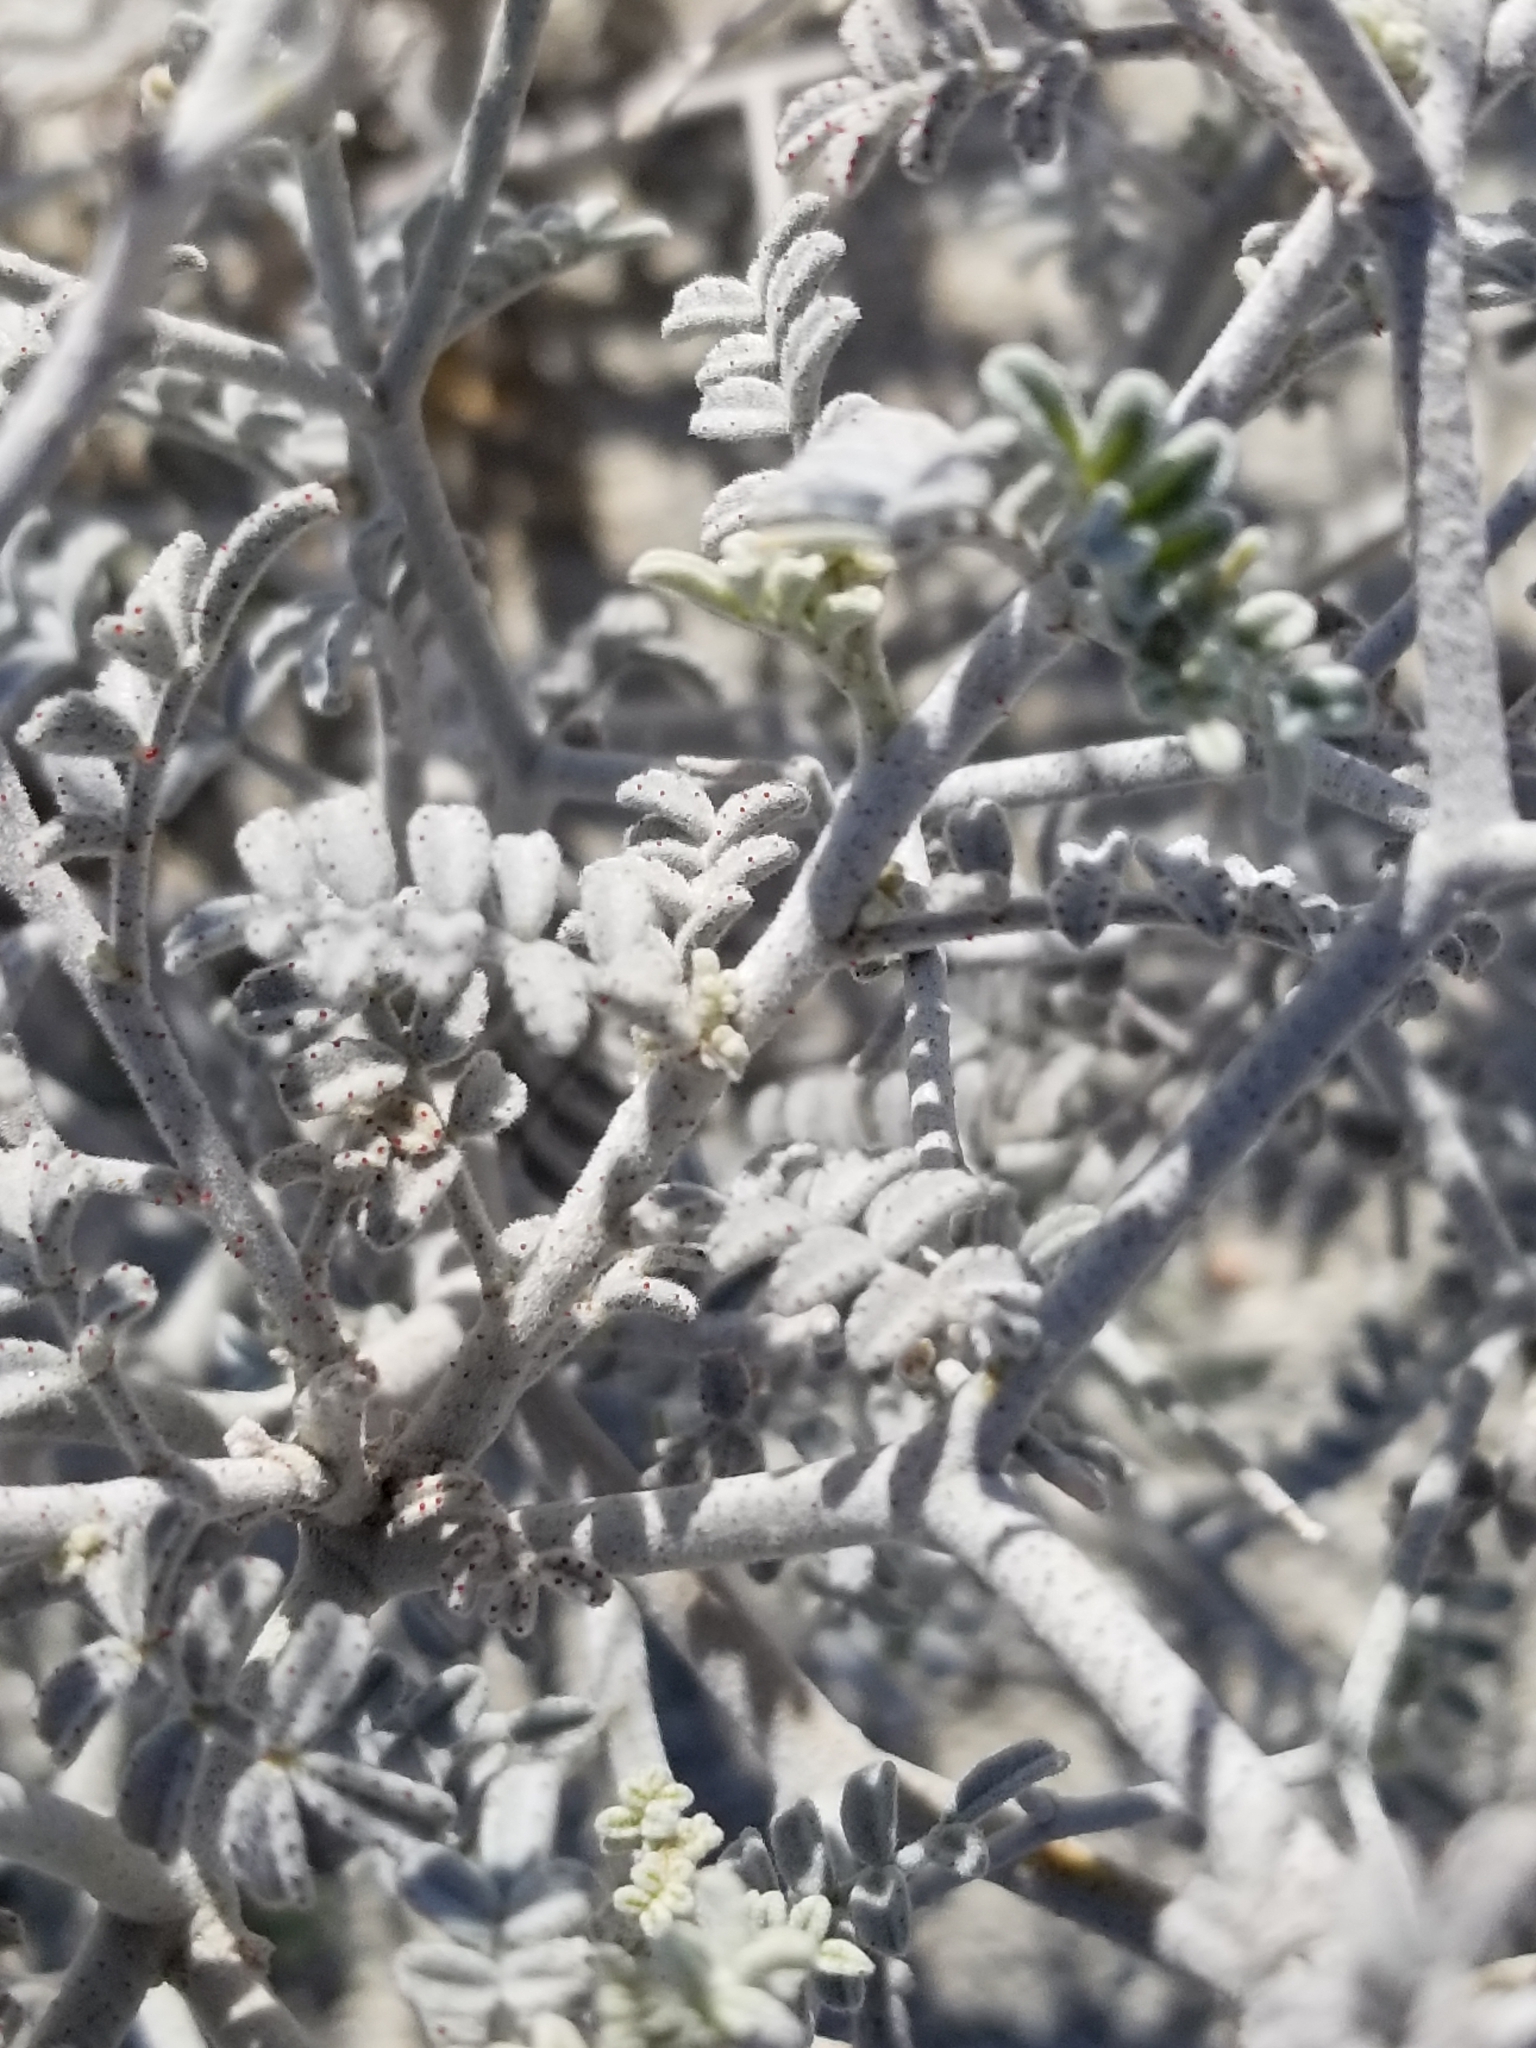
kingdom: Plantae
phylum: Tracheophyta
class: Magnoliopsida
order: Fabales
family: Fabaceae
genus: Psorothamnus
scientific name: Psorothamnus emoryi
